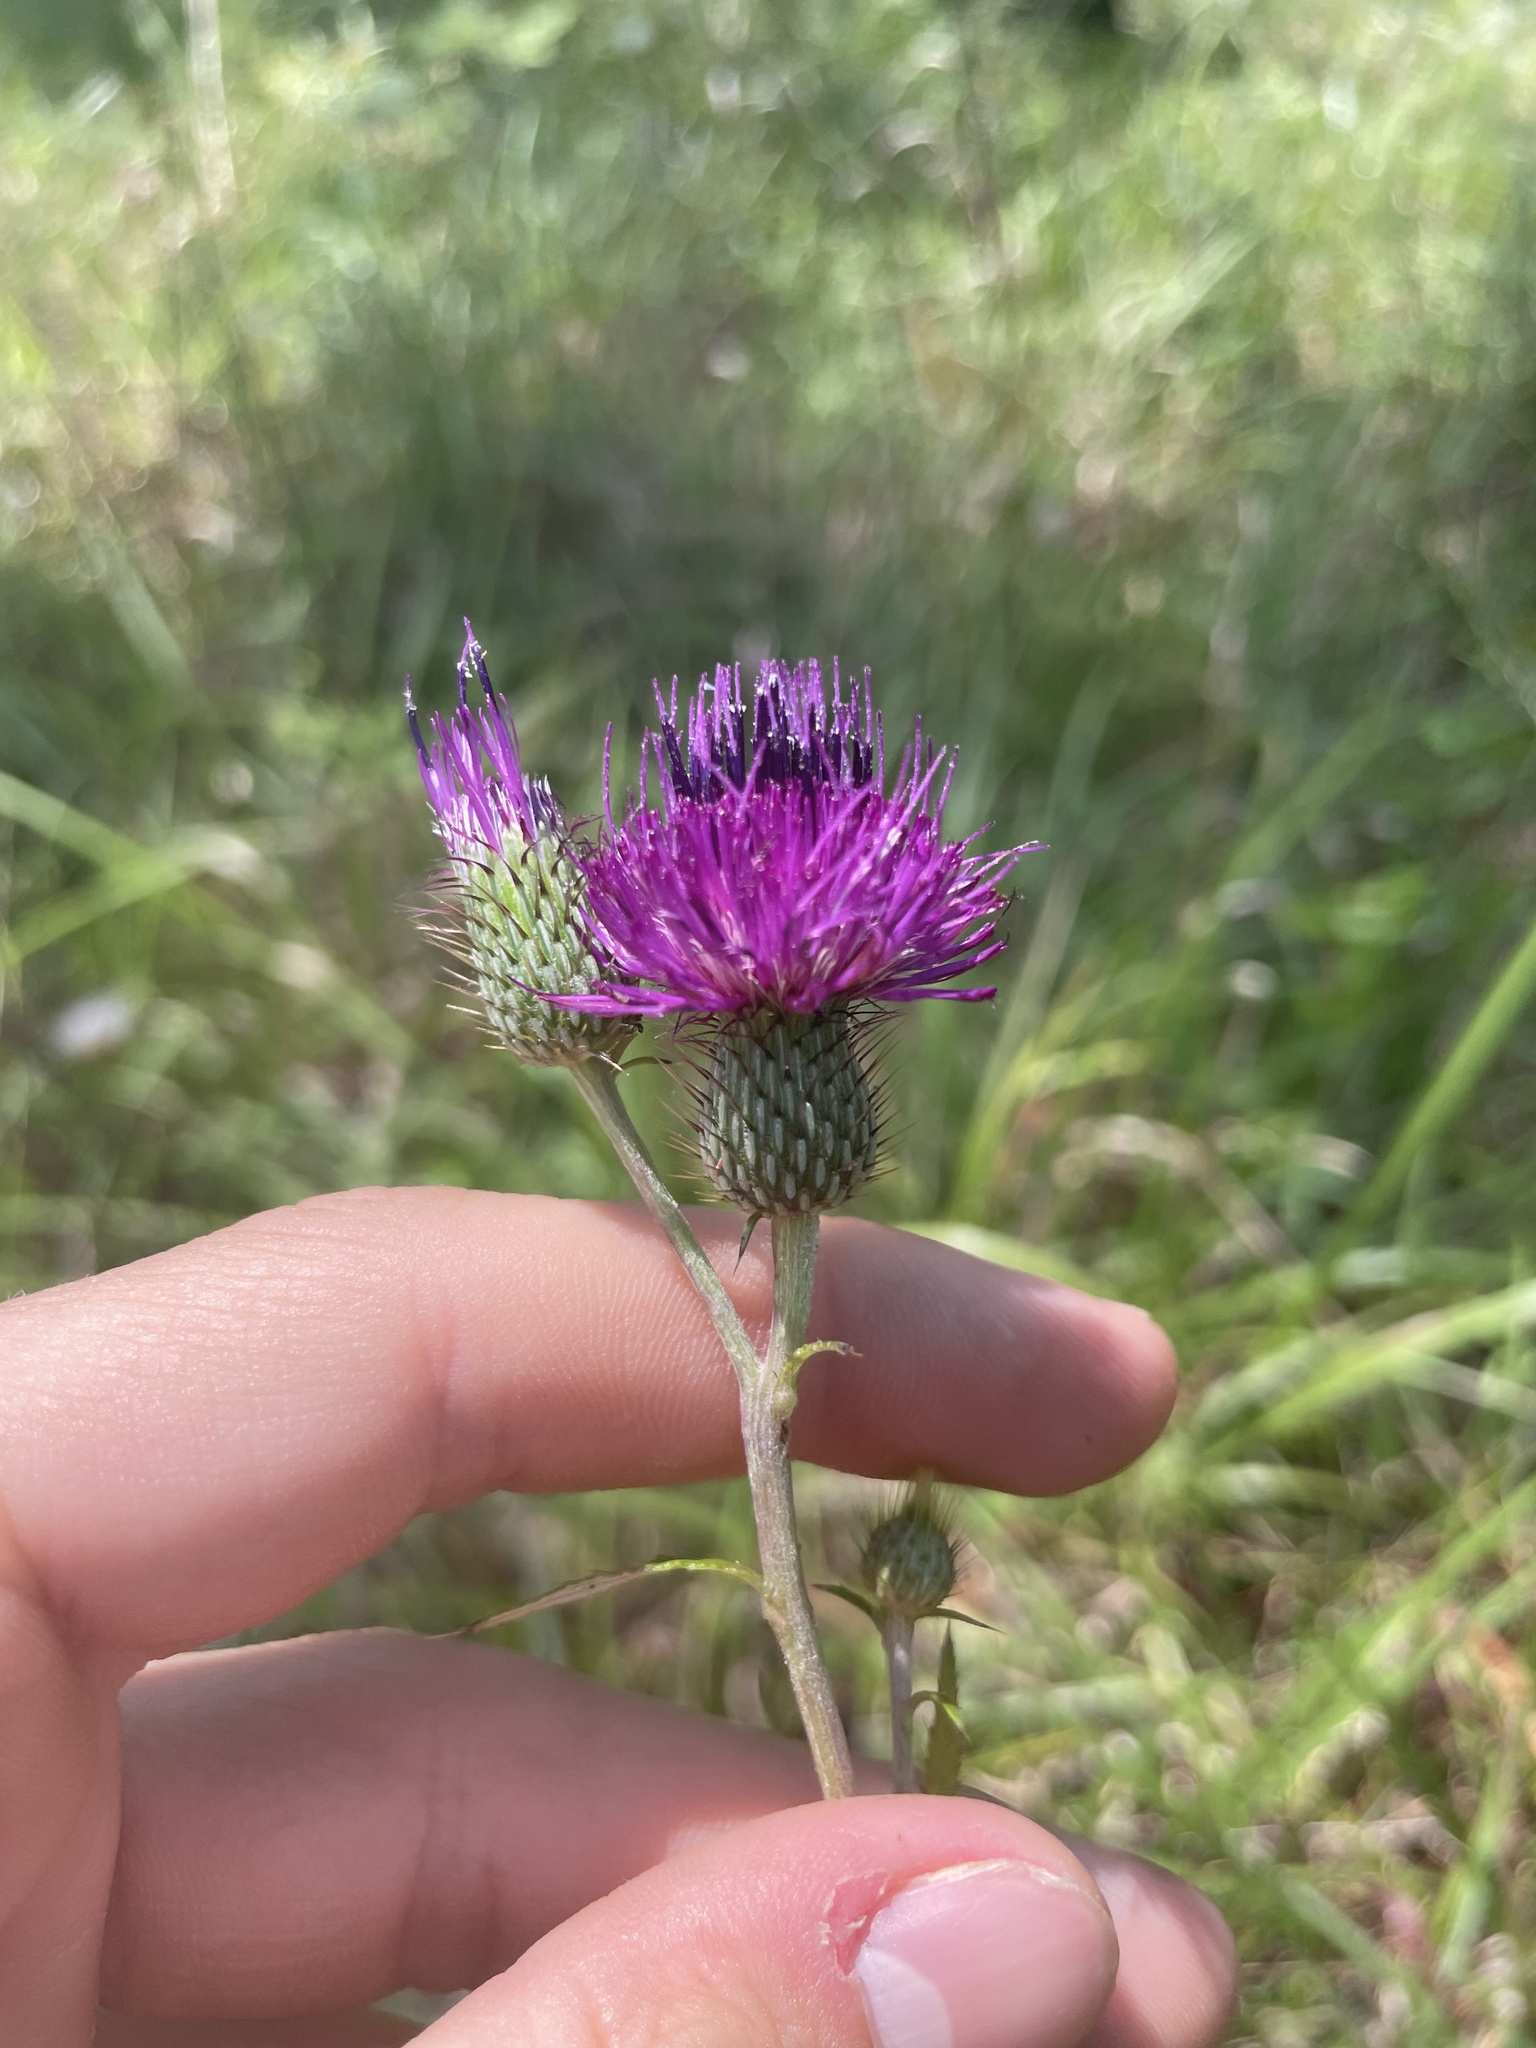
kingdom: Plantae
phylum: Tracheophyta
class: Magnoliopsida
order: Asterales
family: Asteraceae
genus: Cirsium
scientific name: Cirsium carolinianum
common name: Carolina thistle
